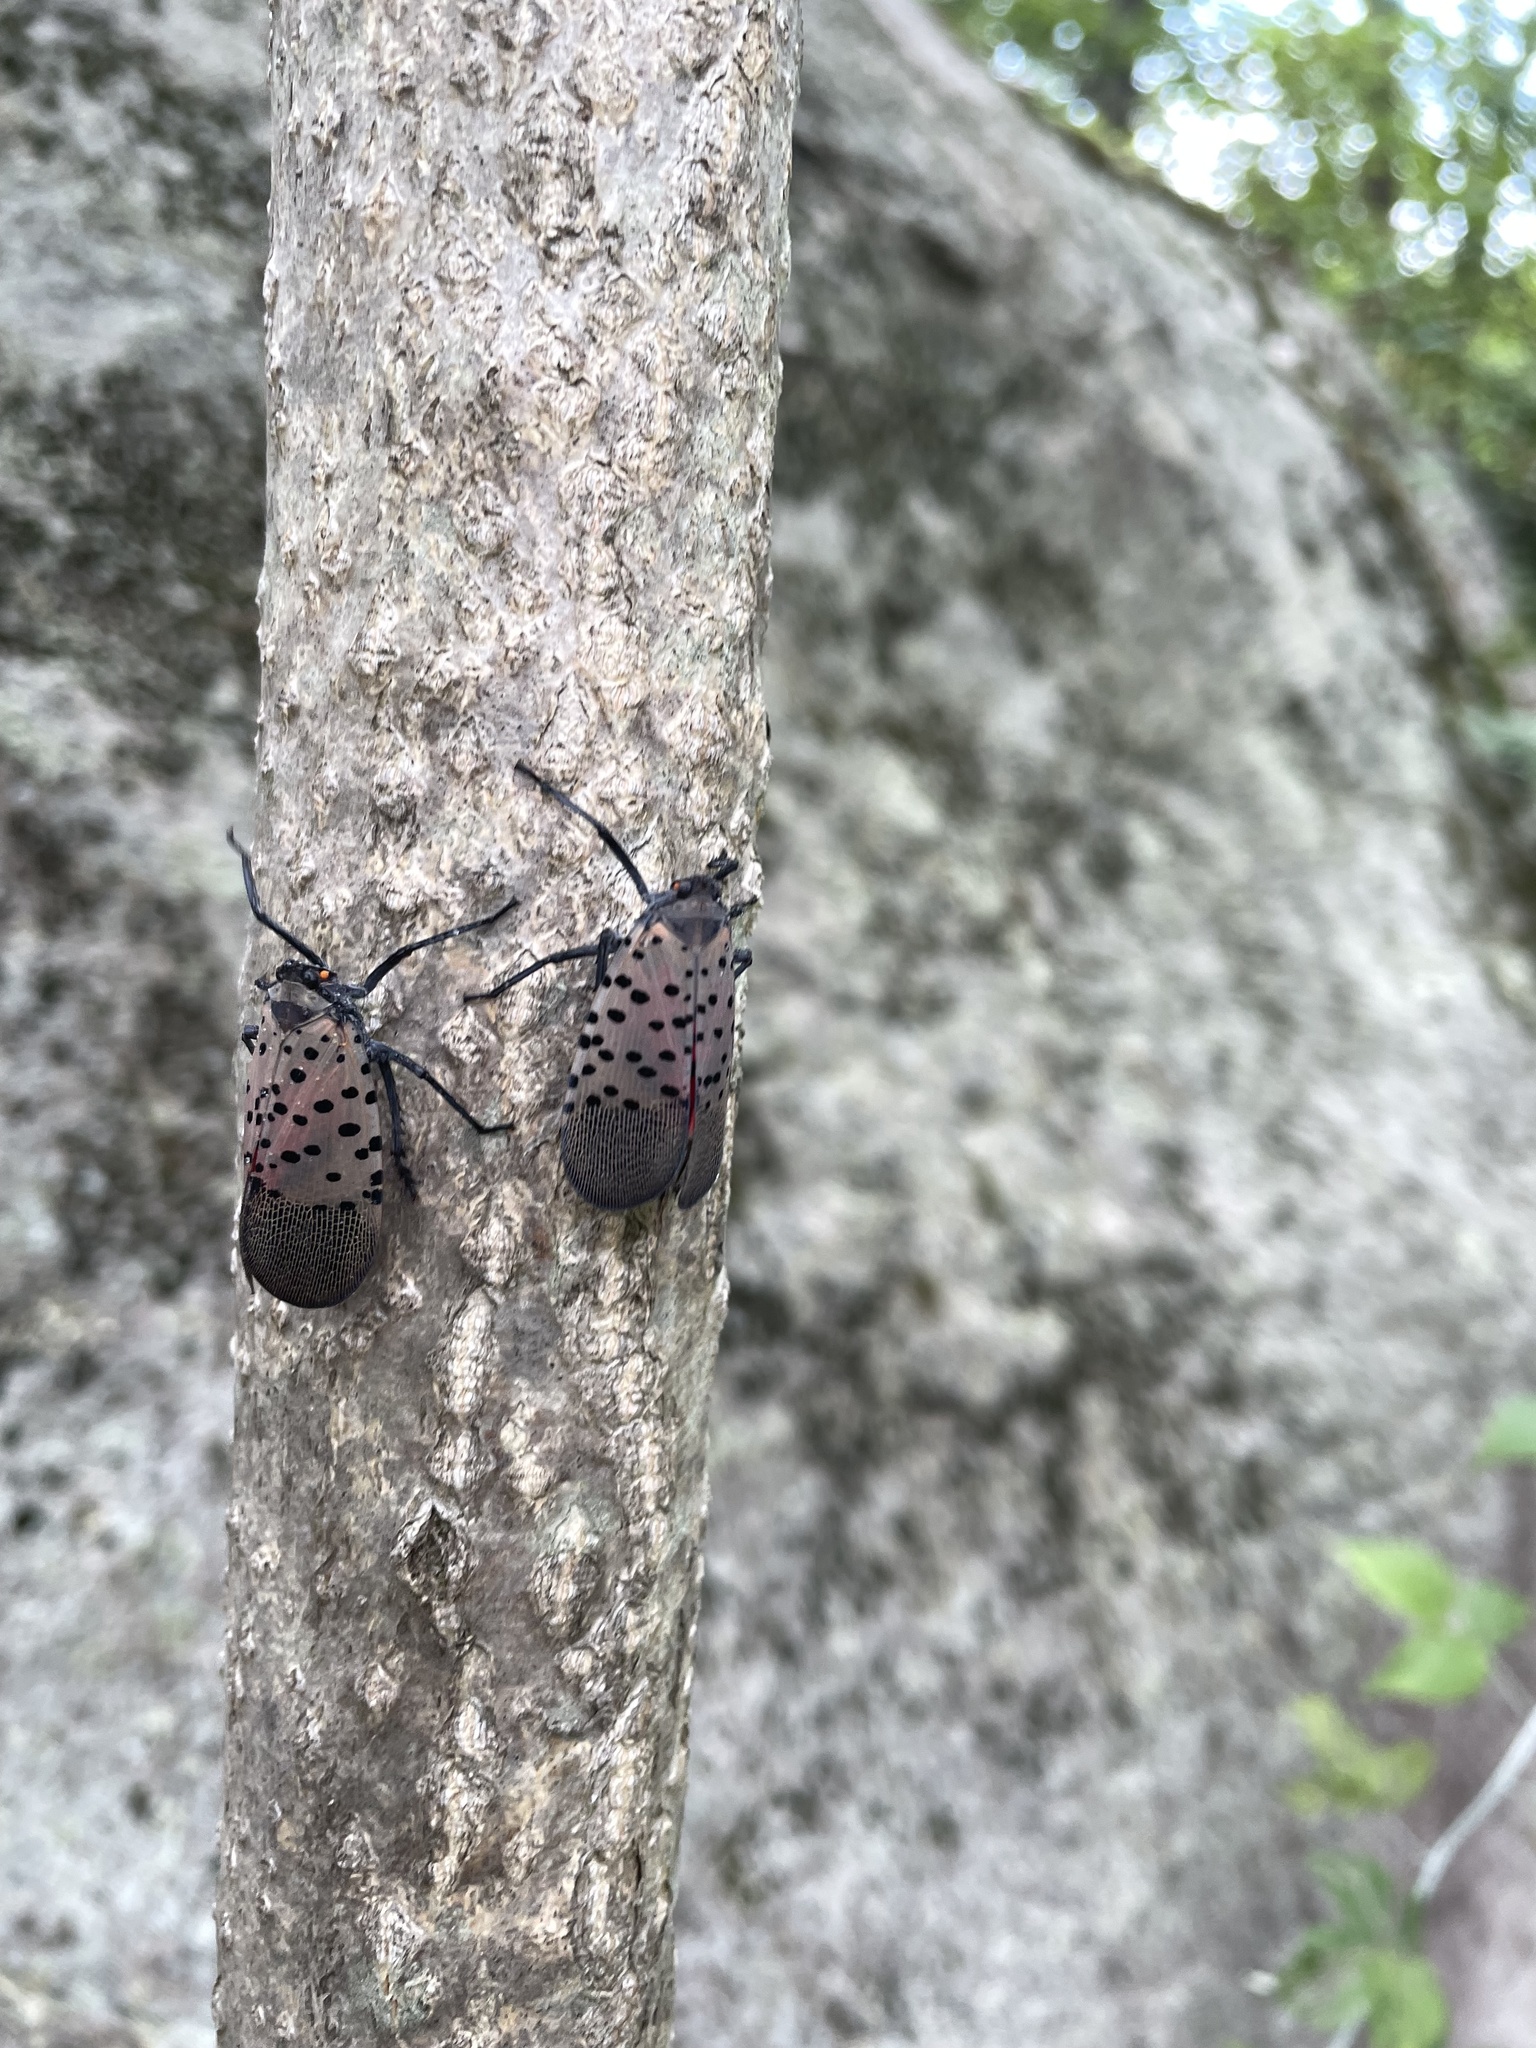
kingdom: Animalia
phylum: Arthropoda
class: Insecta
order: Hemiptera
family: Fulgoridae
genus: Lycorma
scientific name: Lycorma delicatula
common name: Spotted lanternfly
